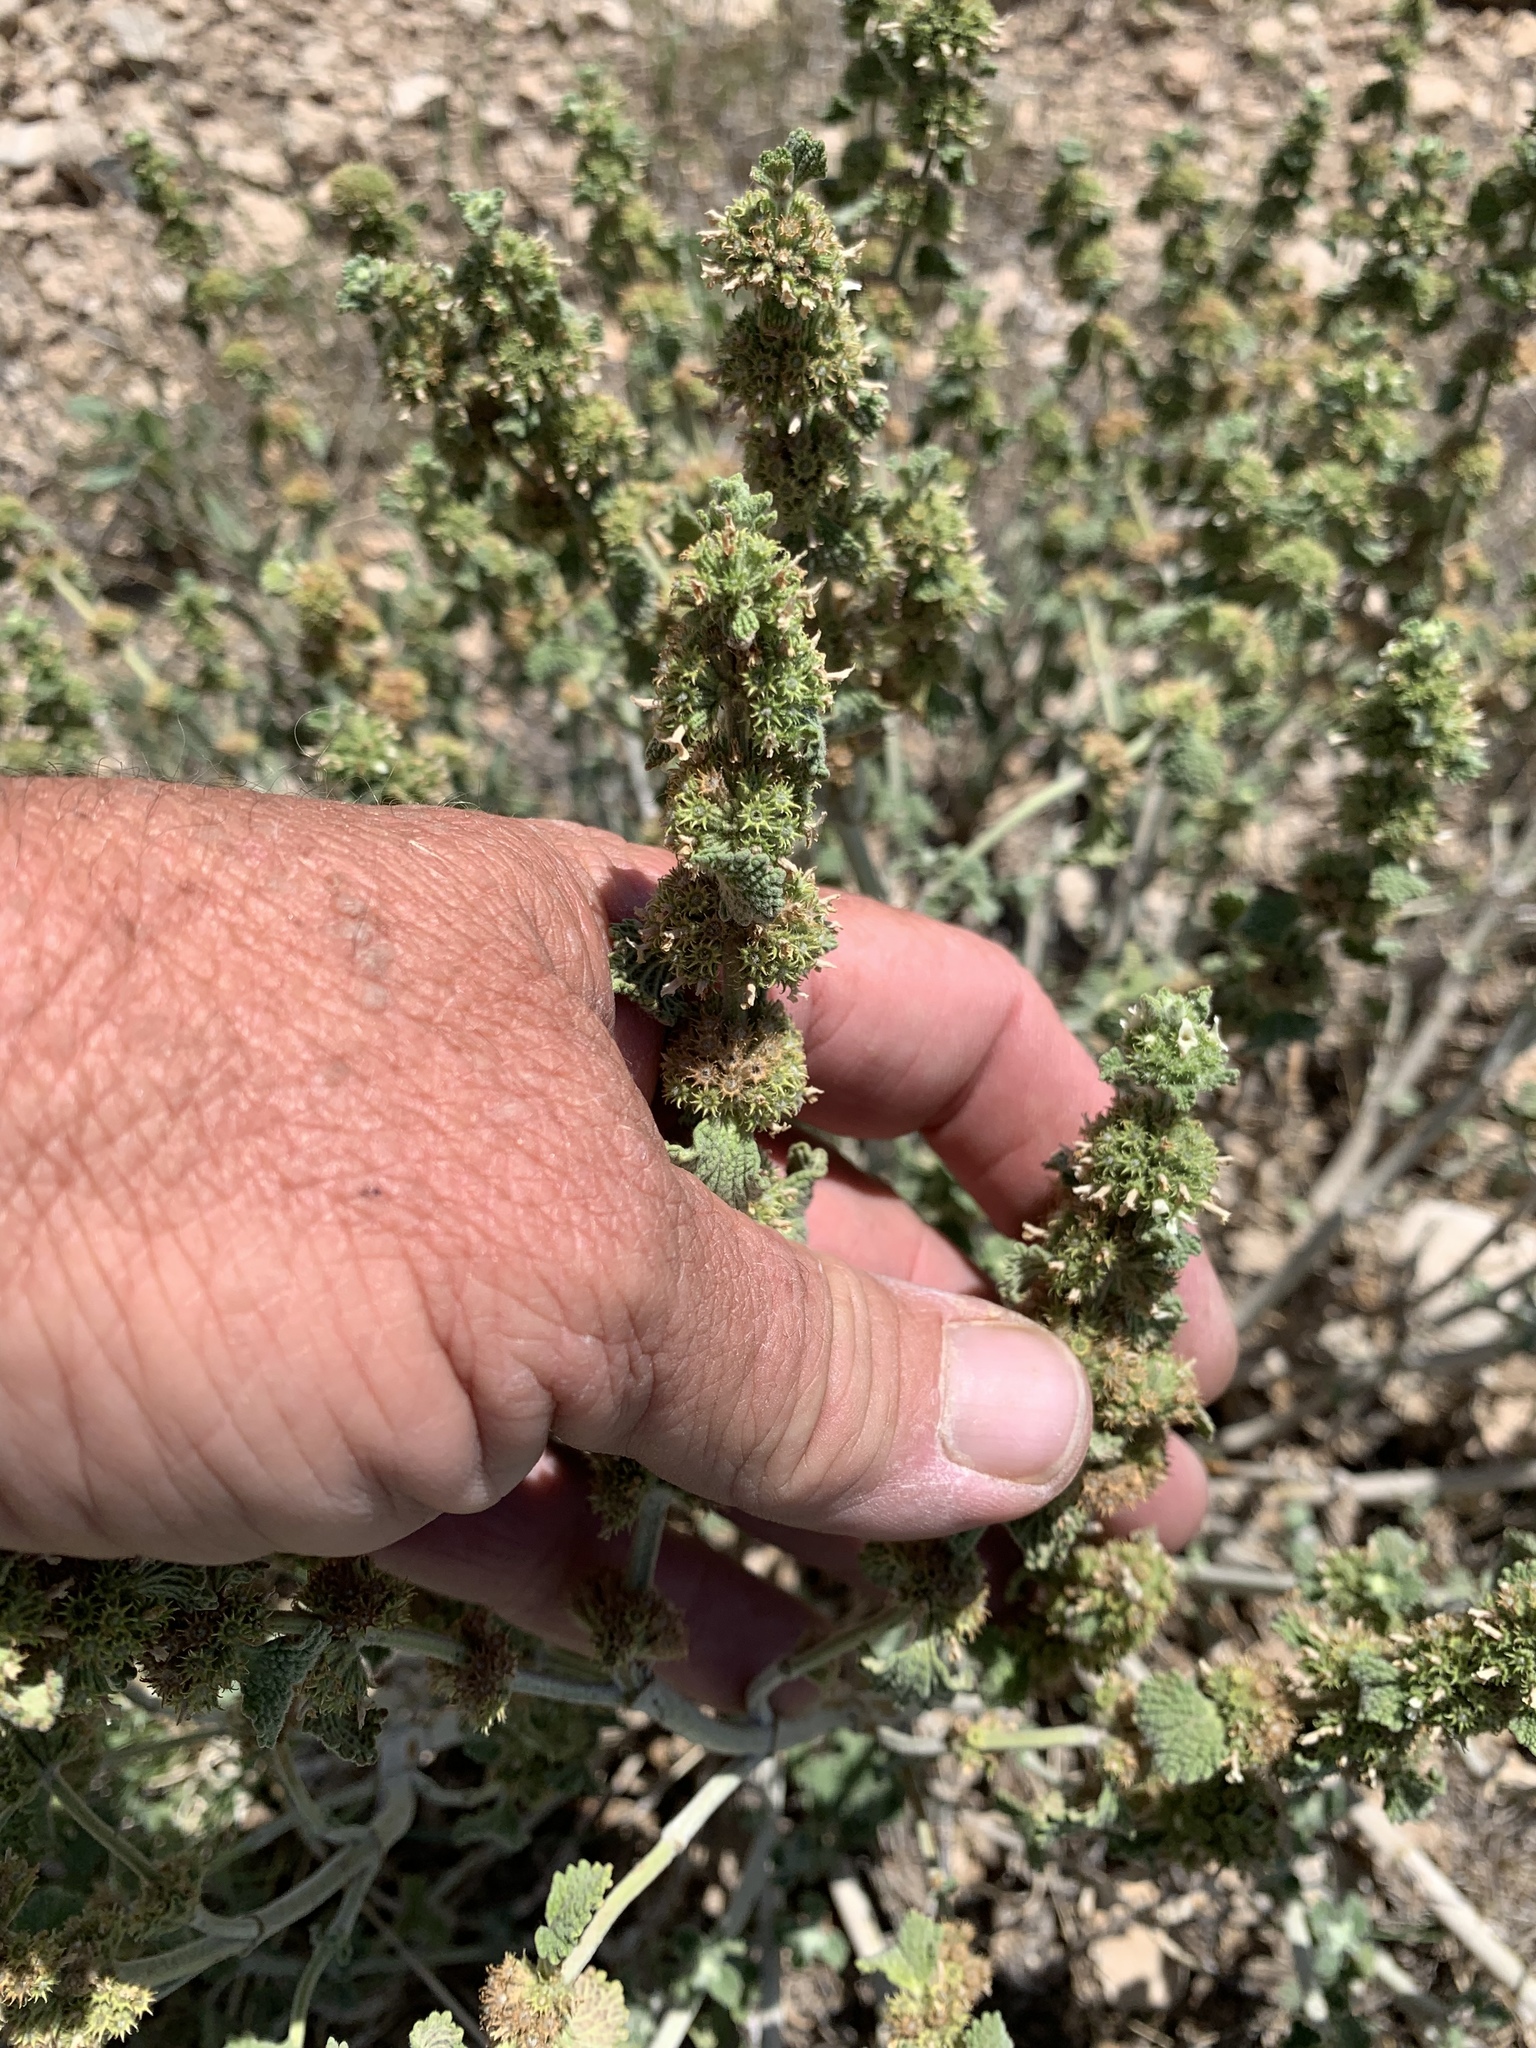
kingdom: Plantae
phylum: Tracheophyta
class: Magnoliopsida
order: Lamiales
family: Lamiaceae
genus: Marrubium
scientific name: Marrubium vulgare
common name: Horehound
